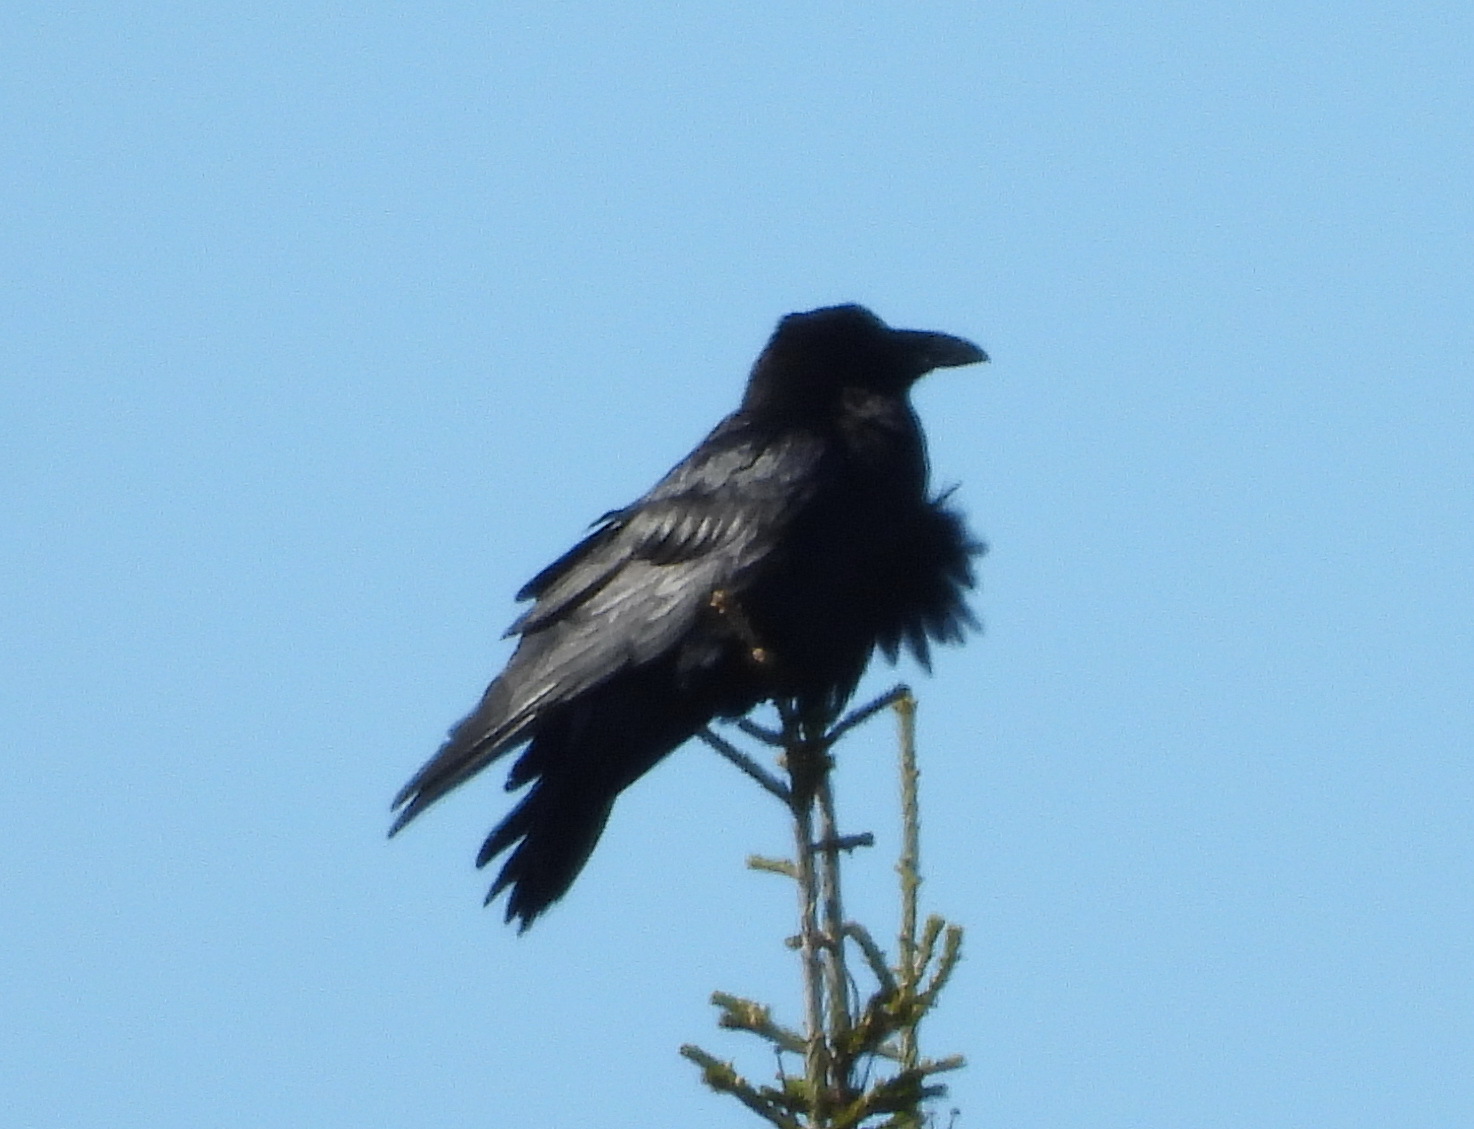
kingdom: Animalia
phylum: Chordata
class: Aves
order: Passeriformes
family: Corvidae
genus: Corvus
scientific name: Corvus corax
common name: Common raven
